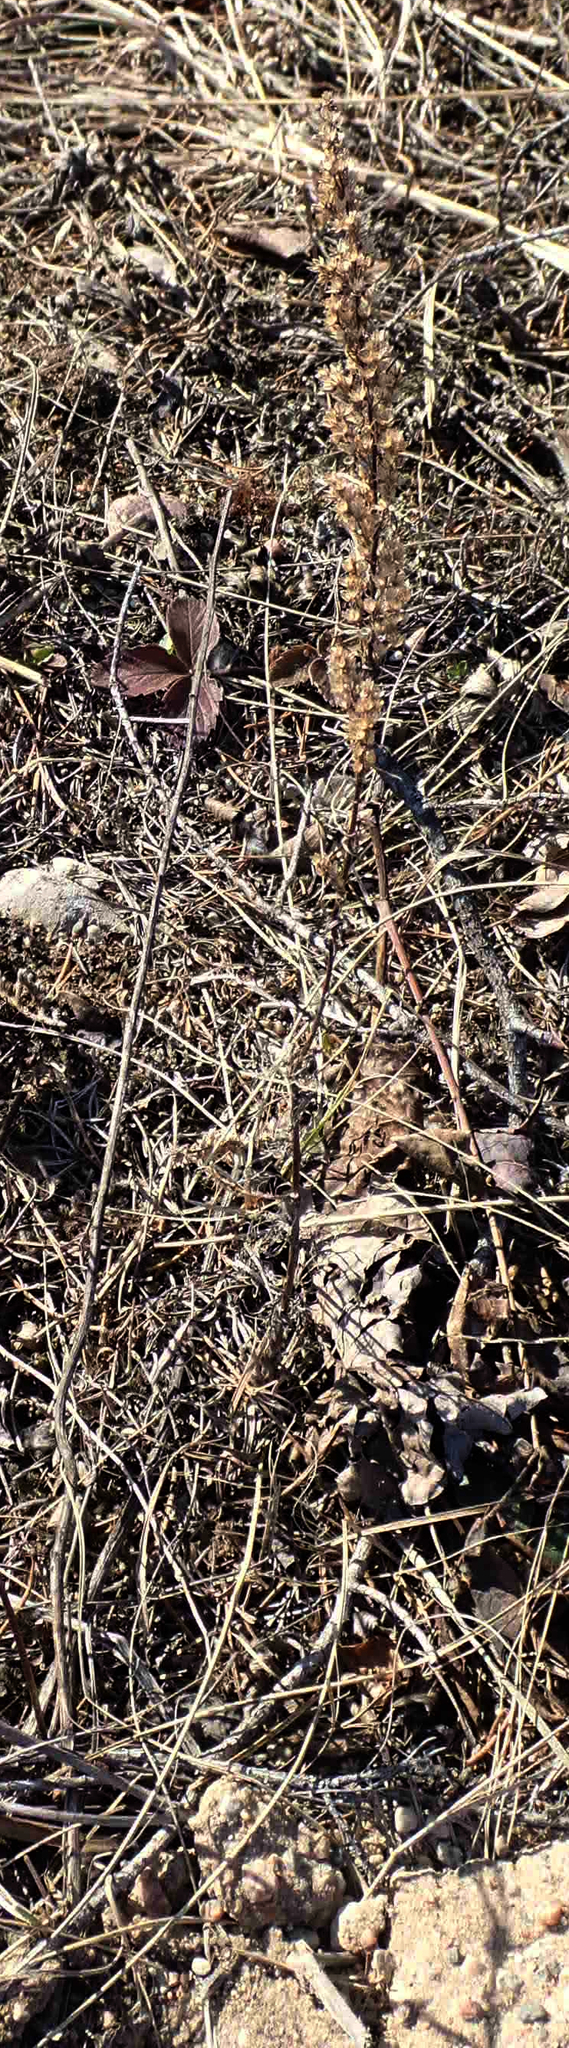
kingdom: Plantae
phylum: Tracheophyta
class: Magnoliopsida
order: Asterales
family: Asteraceae
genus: Artemisia
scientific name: Artemisia campestris
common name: Field wormwood
